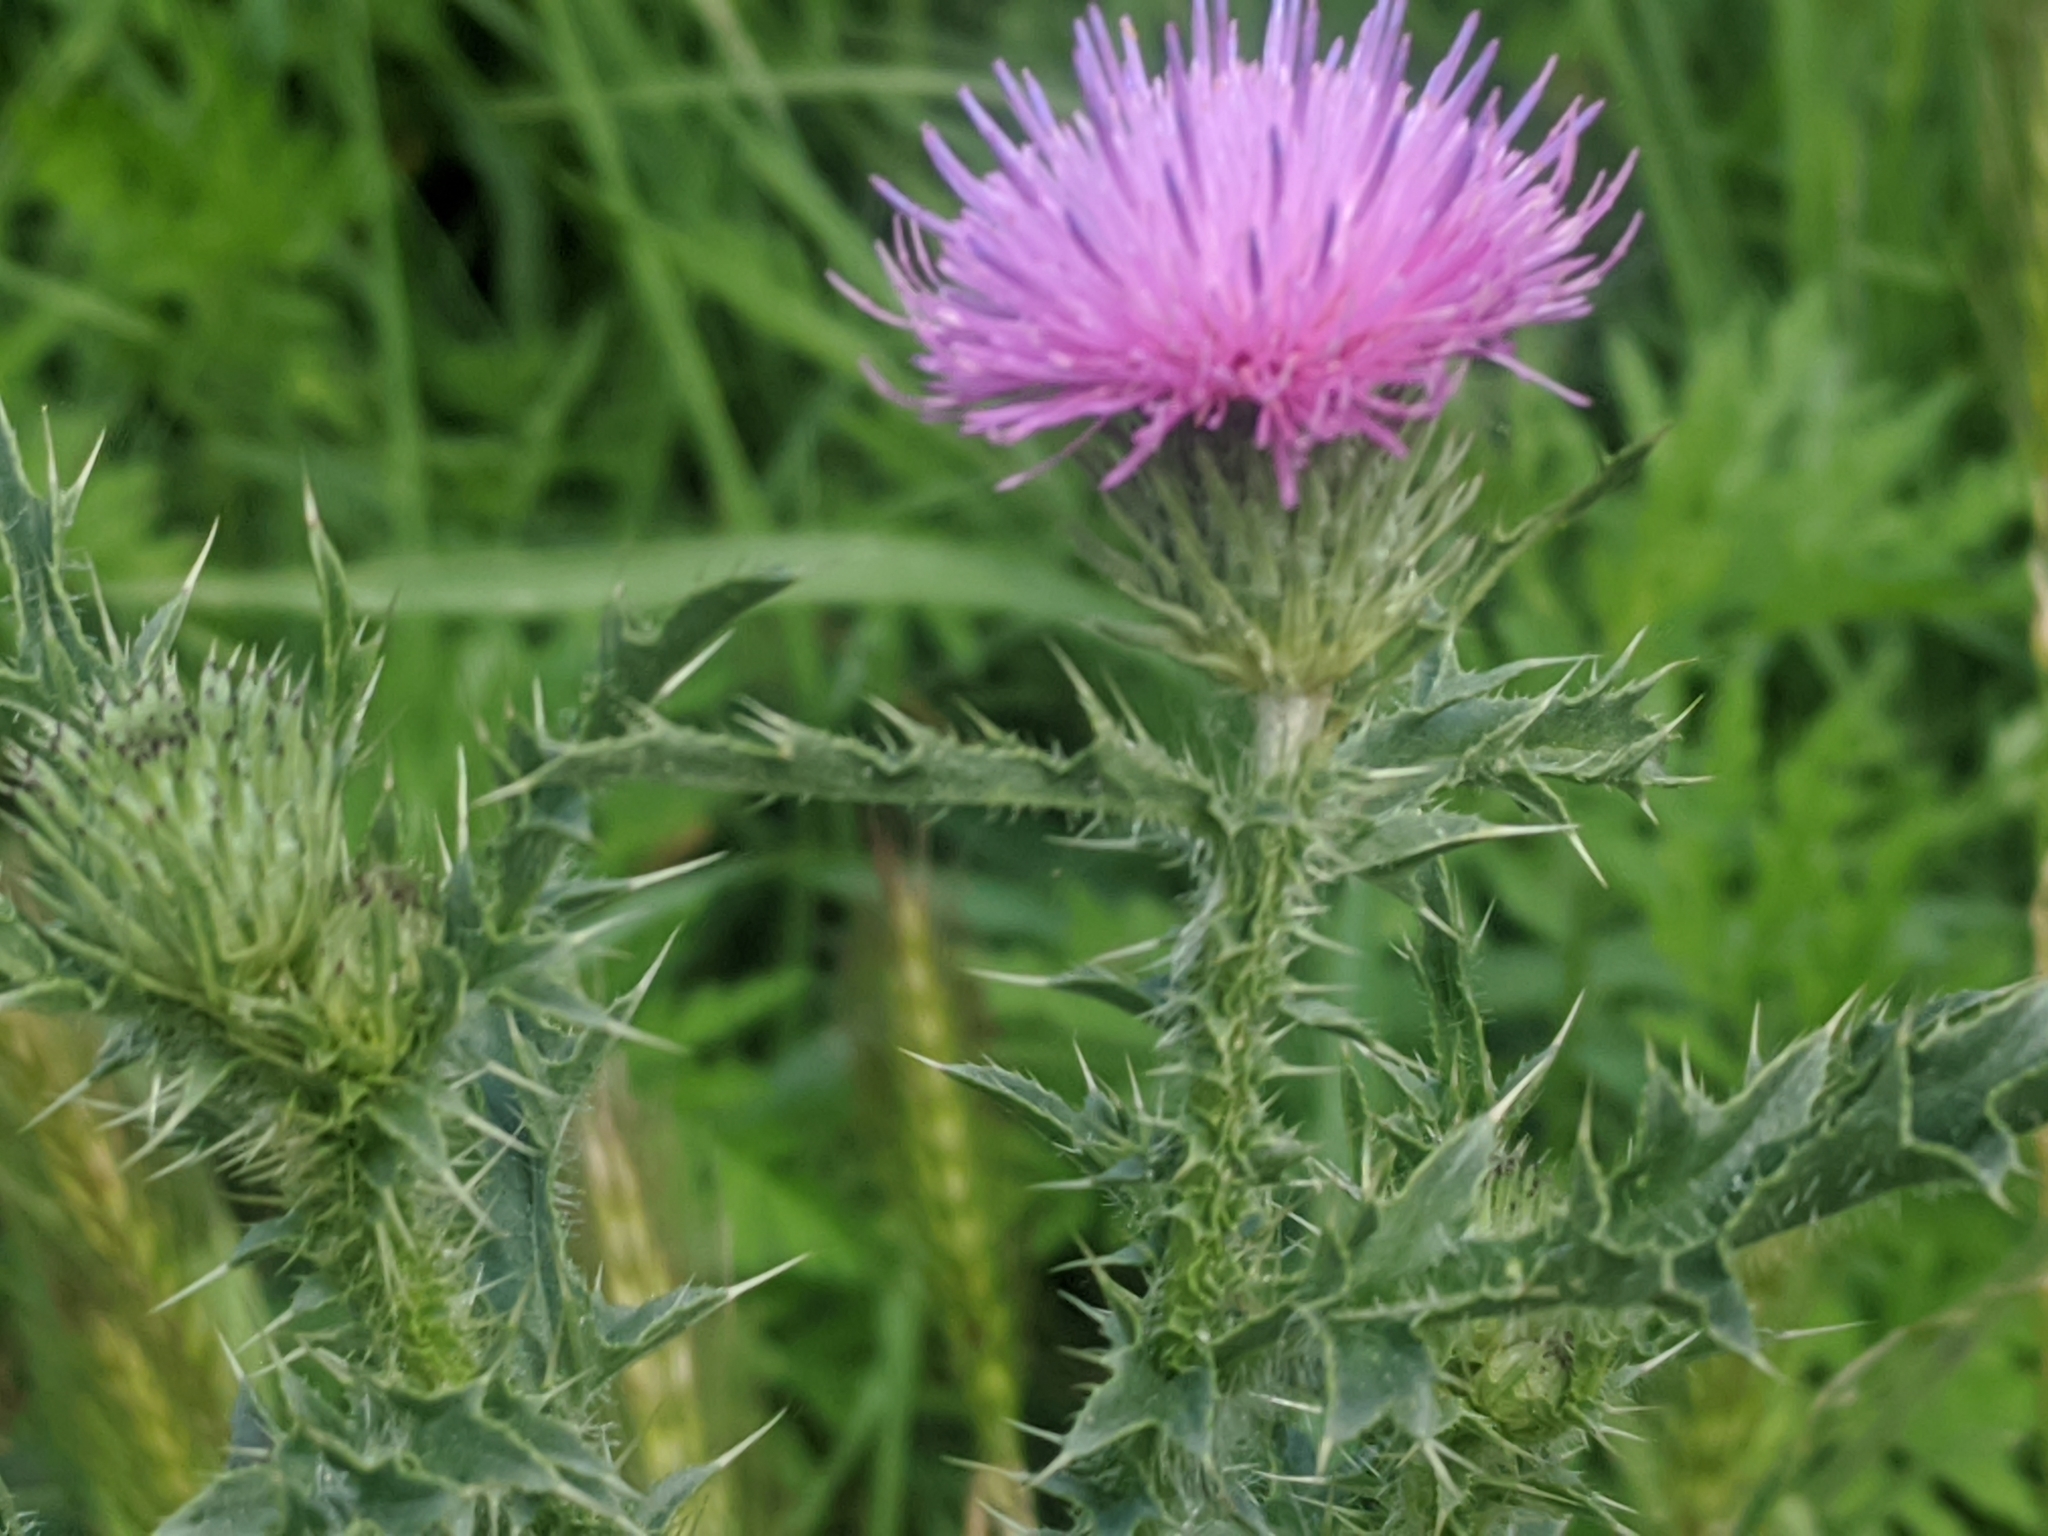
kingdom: Plantae
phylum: Tracheophyta
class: Magnoliopsida
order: Asterales
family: Asteraceae
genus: Carduus
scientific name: Carduus acanthoides
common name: Plumeless thistle
